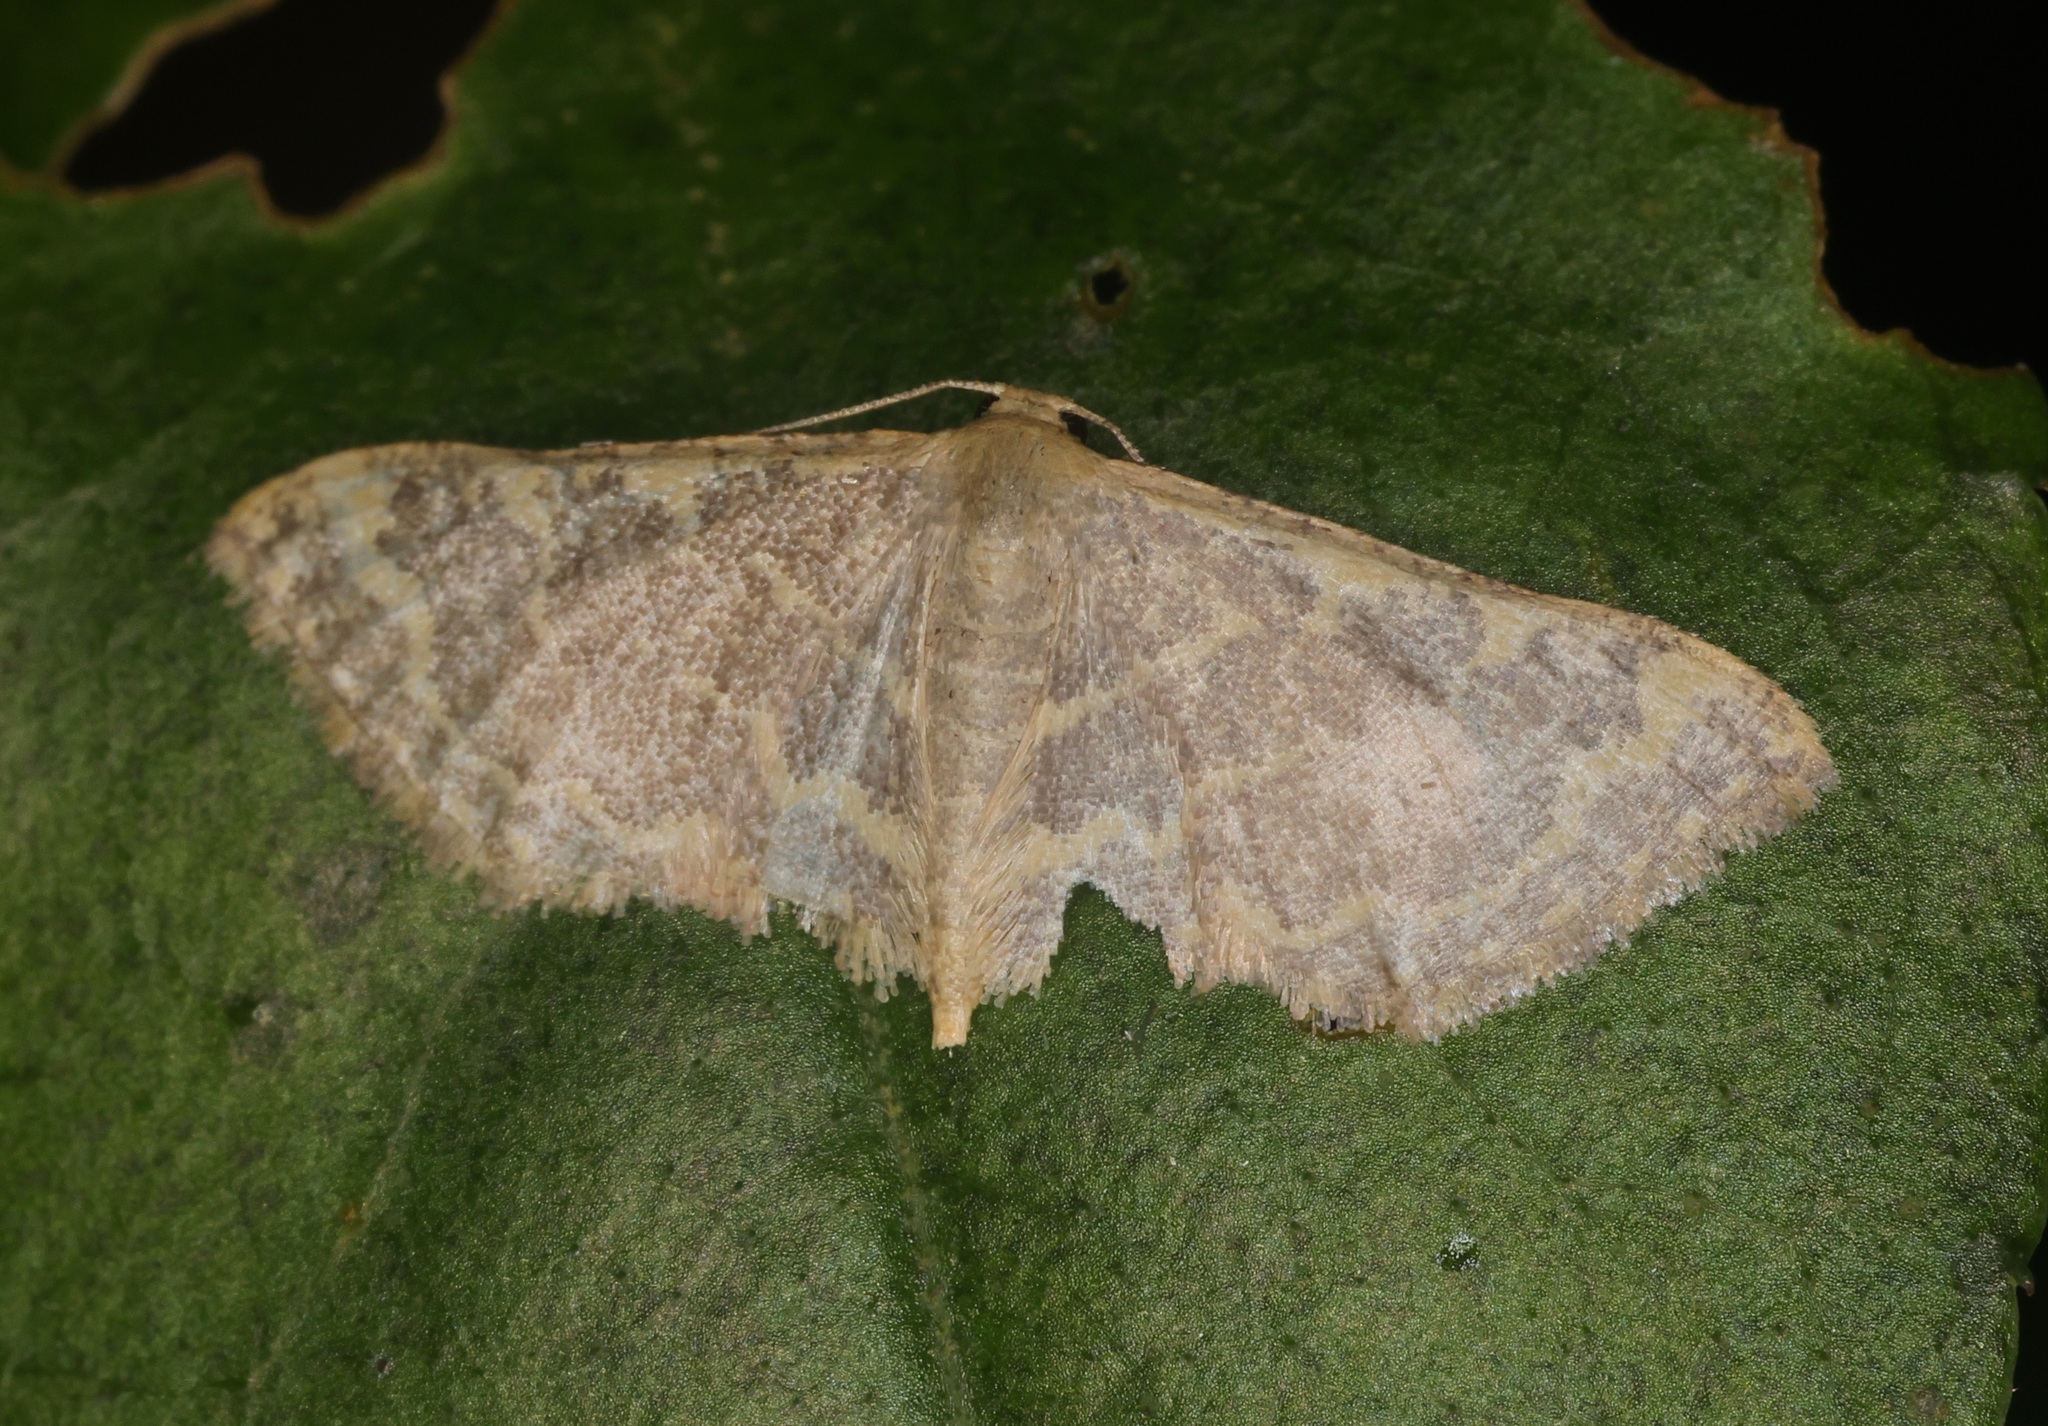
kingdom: Animalia
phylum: Arthropoda
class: Insecta
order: Lepidoptera
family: Geometridae
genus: Lophophleps
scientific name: Lophophleps purpurea
